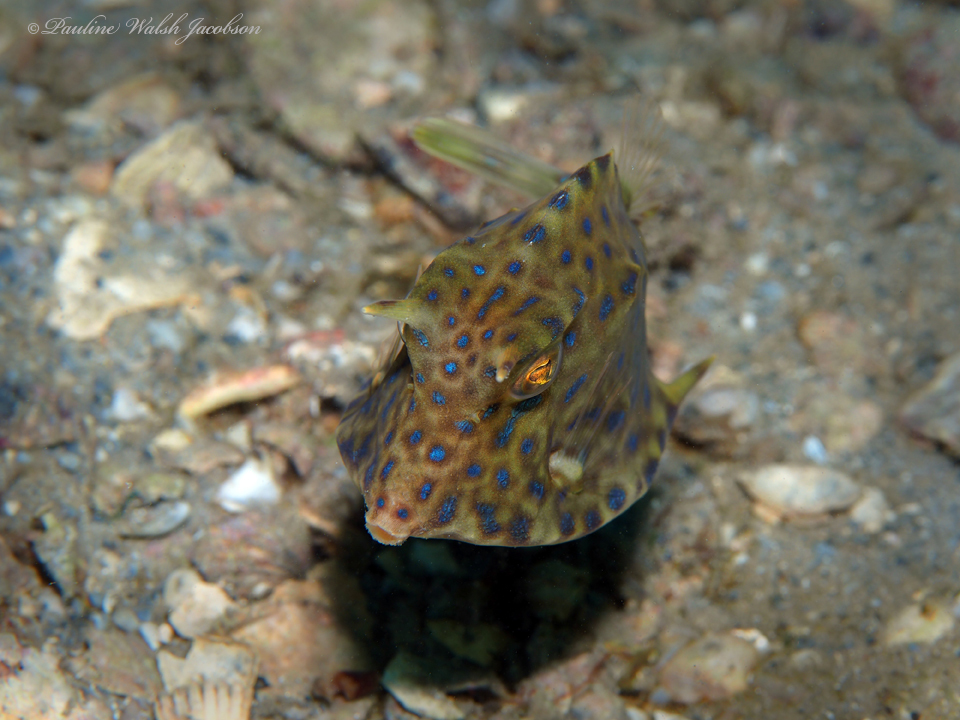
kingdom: Animalia
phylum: Chordata
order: Tetraodontiformes
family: Ostraciidae
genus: Acanthostracion
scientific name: Acanthostracion quadricornis
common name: Scrawled cowfish
